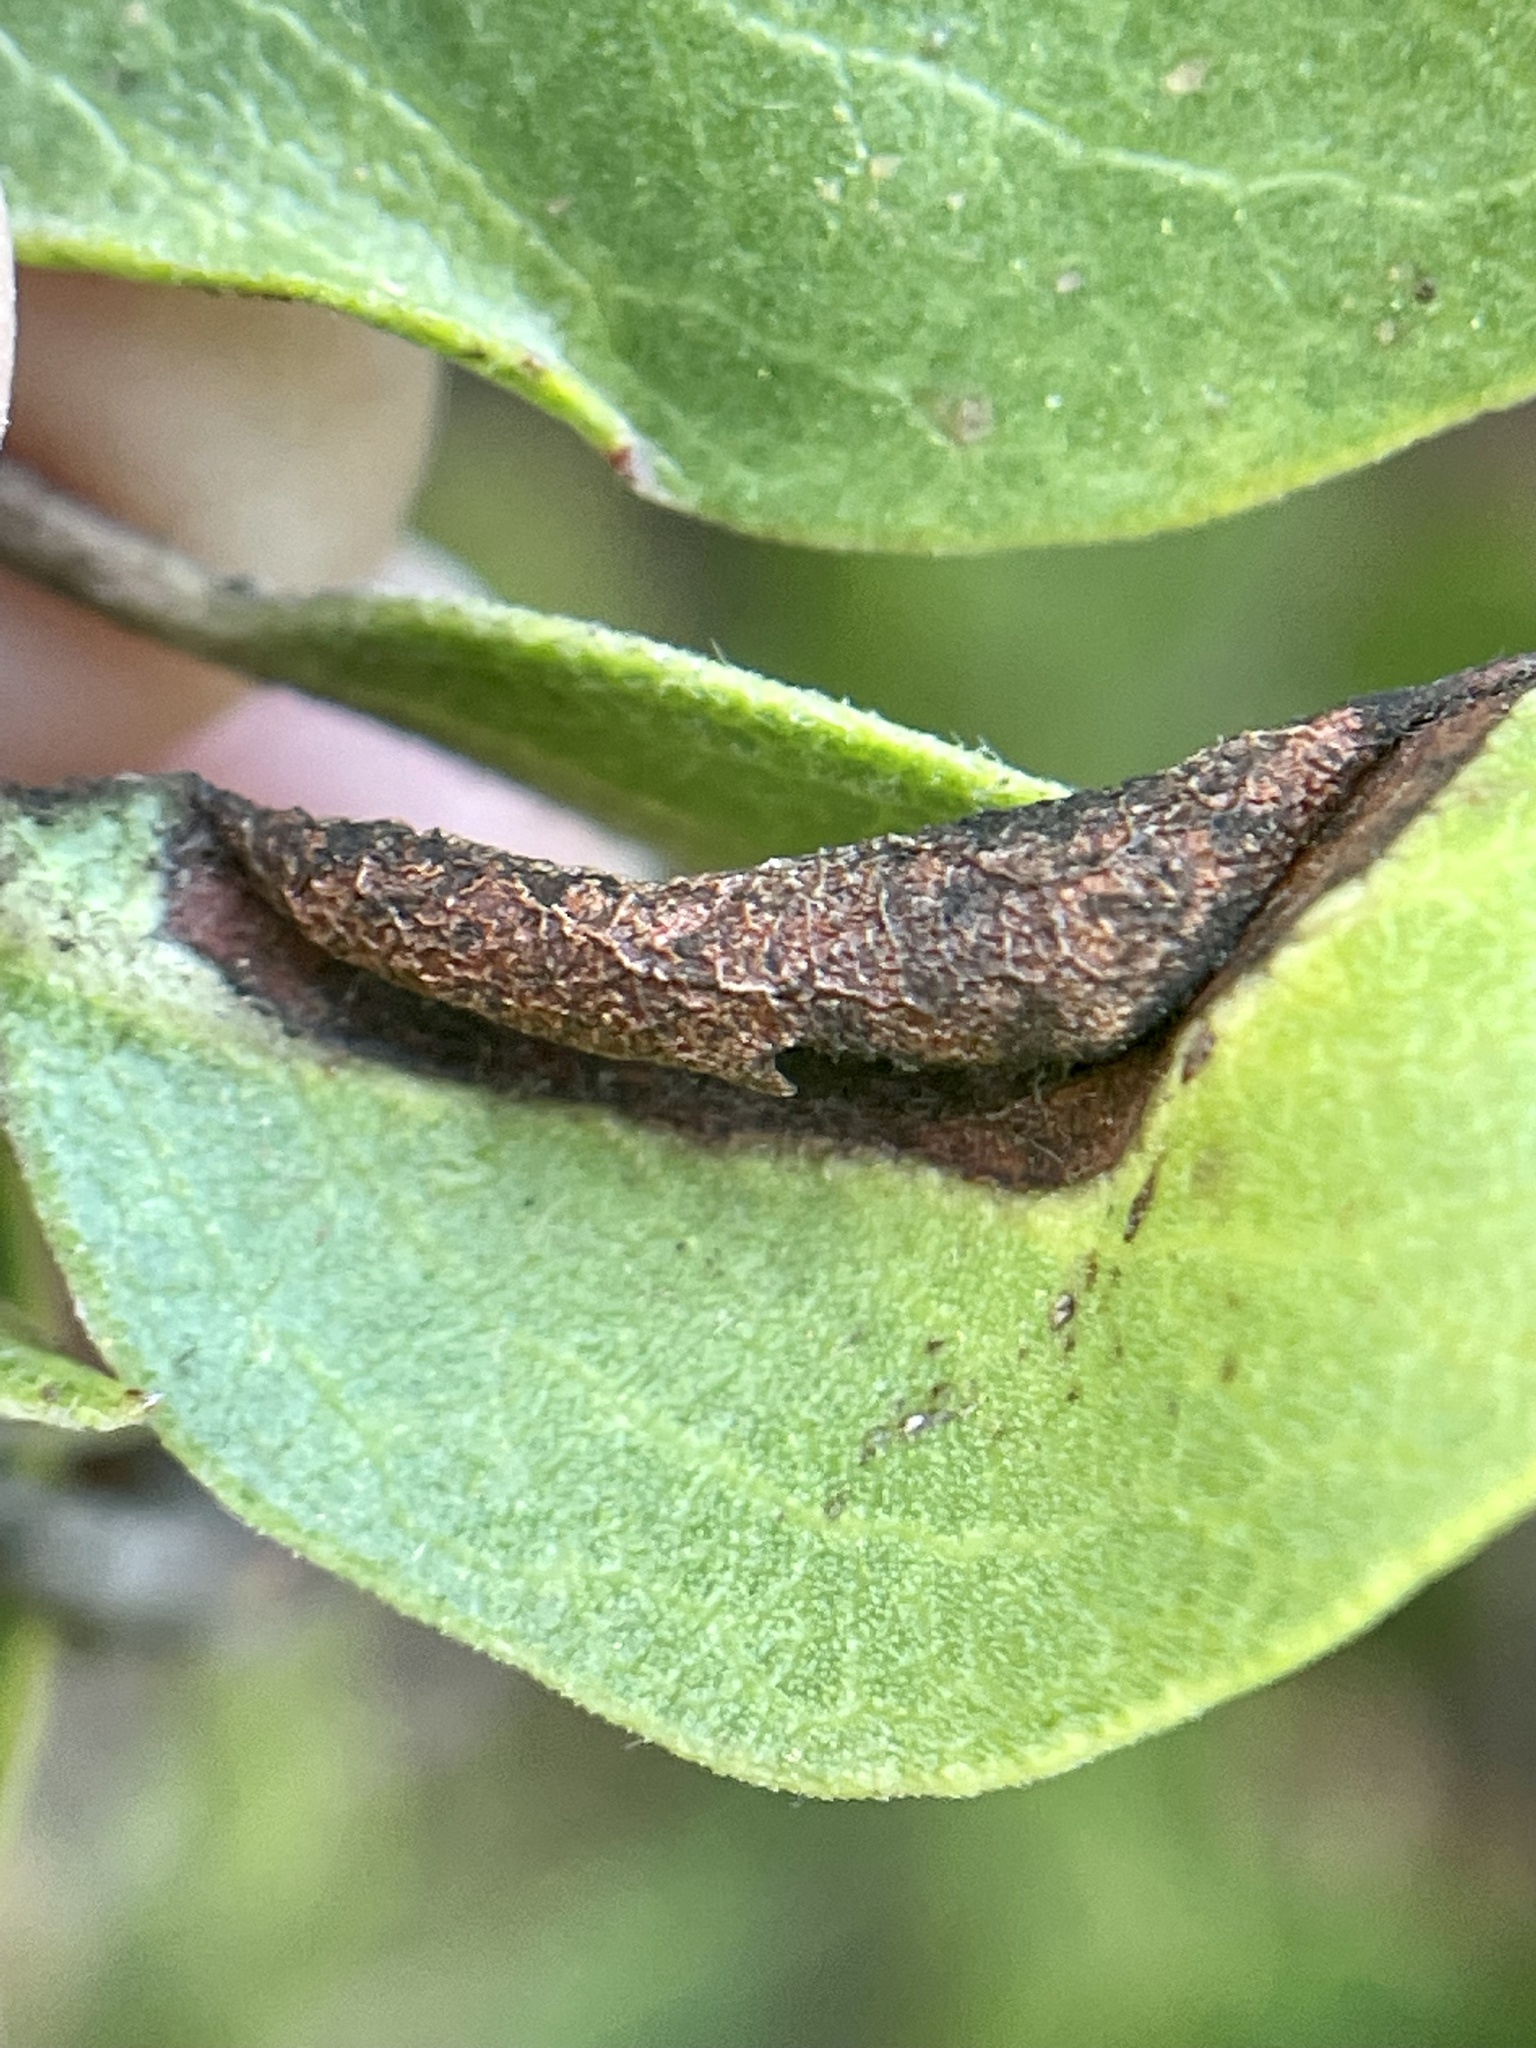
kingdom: Animalia
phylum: Arthropoda
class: Insecta
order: Hemiptera
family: Aphididae
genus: Tamalia
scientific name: Tamalia coweni
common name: Manzanita leafgall aphid
